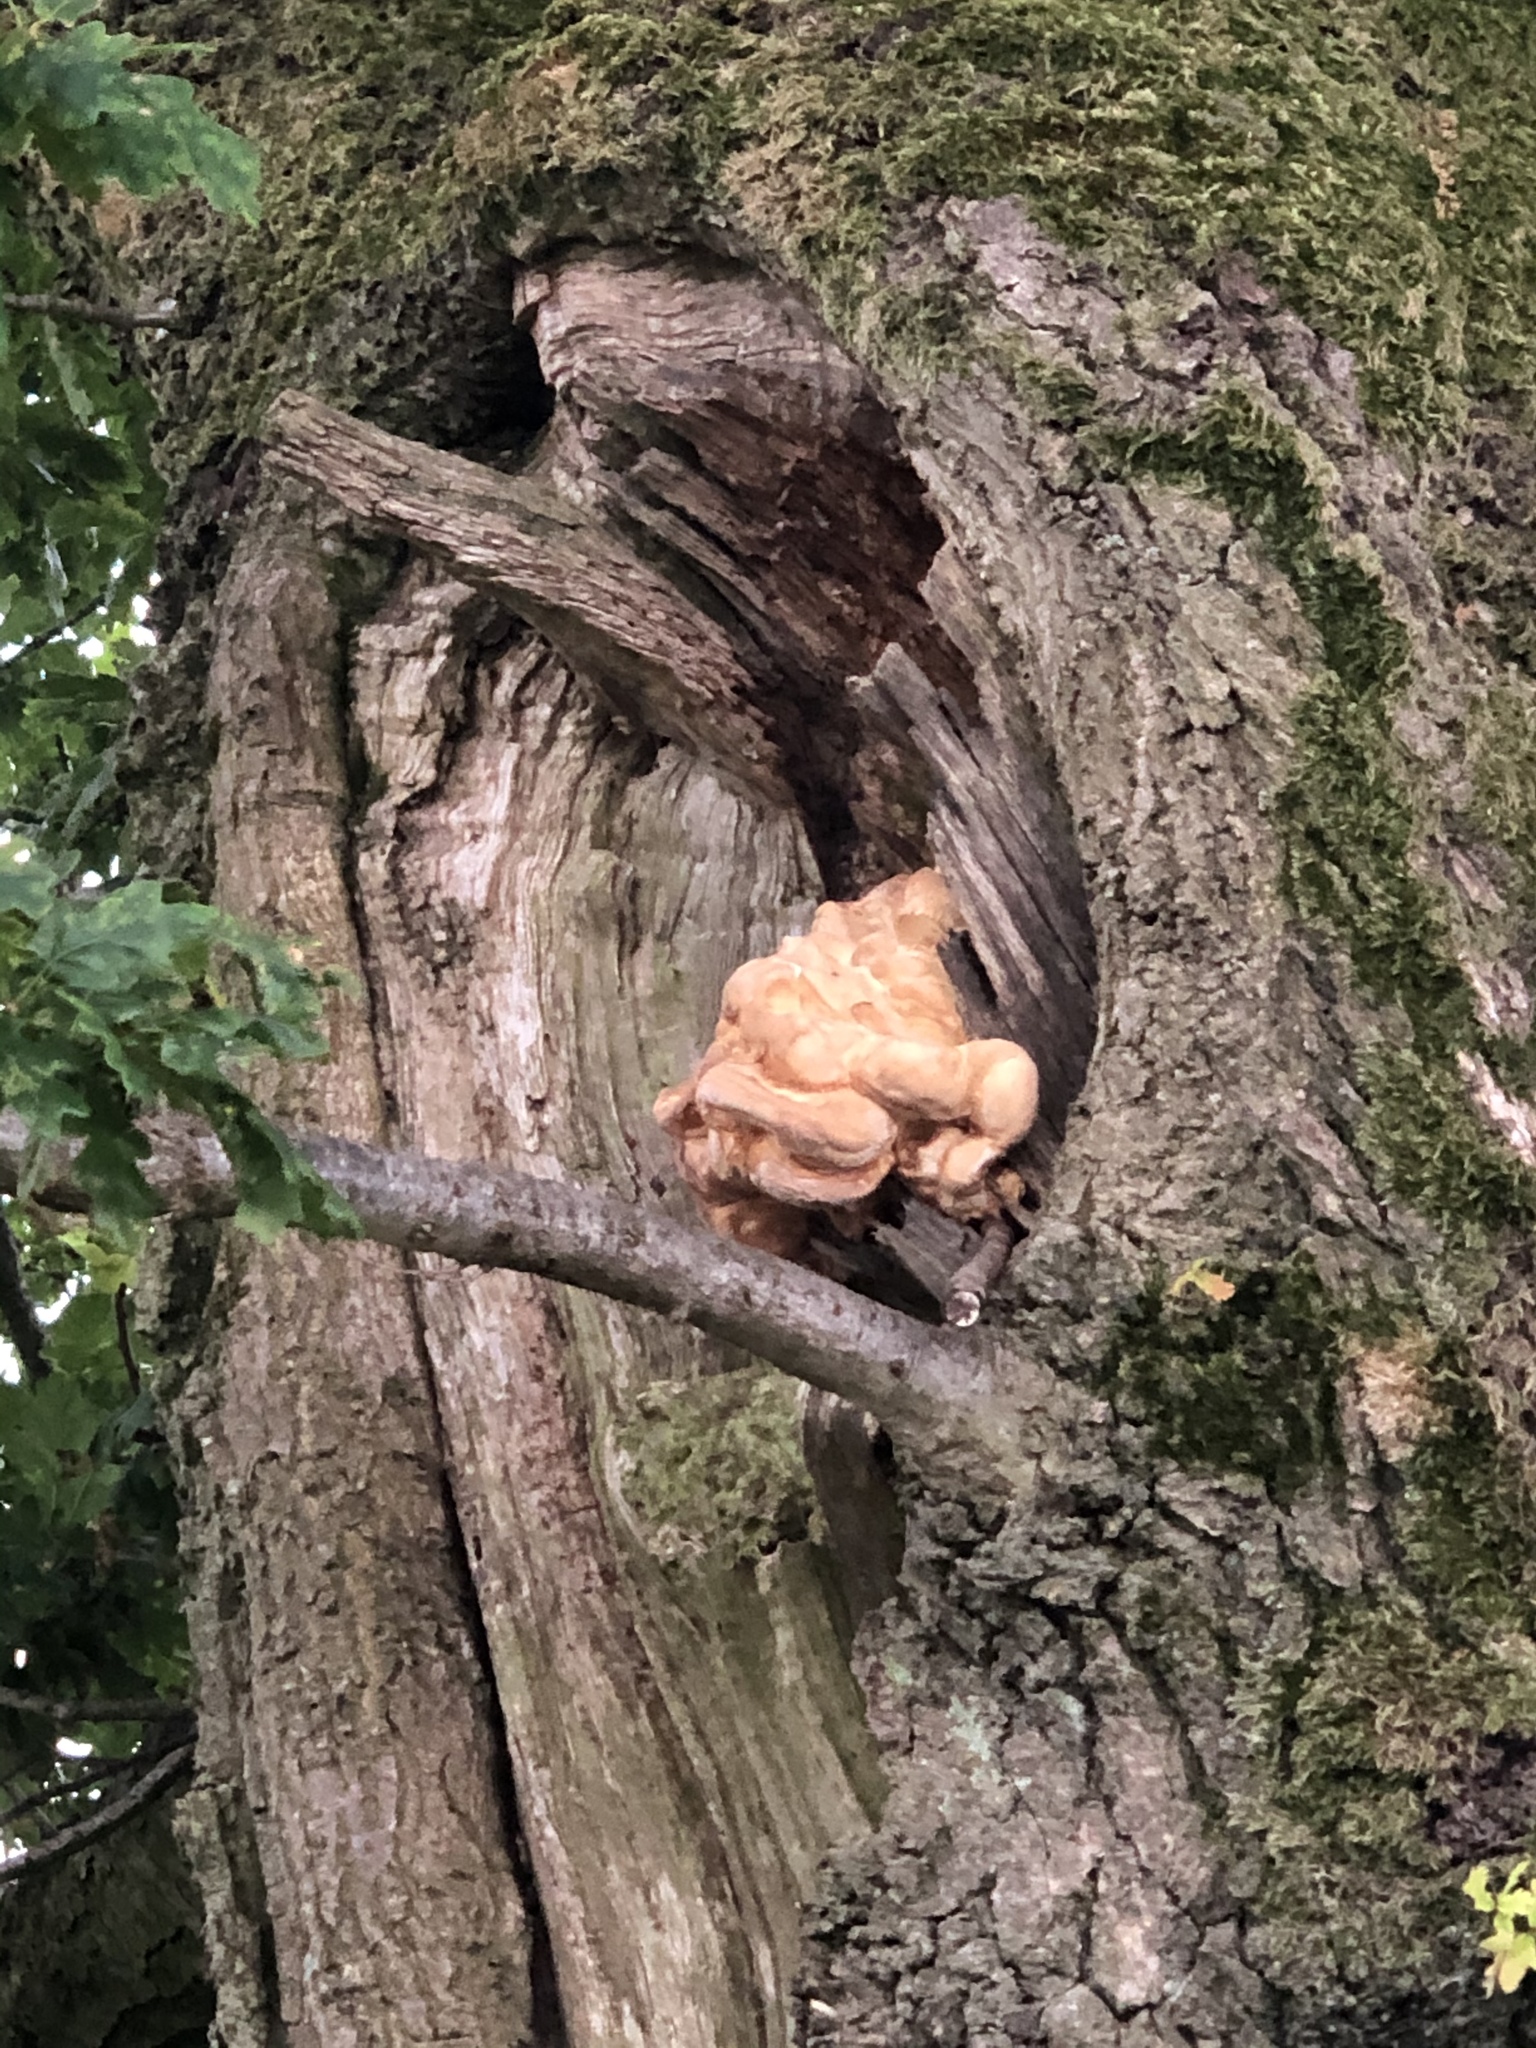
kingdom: Fungi
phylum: Basidiomycota
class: Agaricomycetes
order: Polyporales
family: Laetiporaceae
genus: Laetiporus
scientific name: Laetiporus sulphureus
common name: Chicken of the woods
